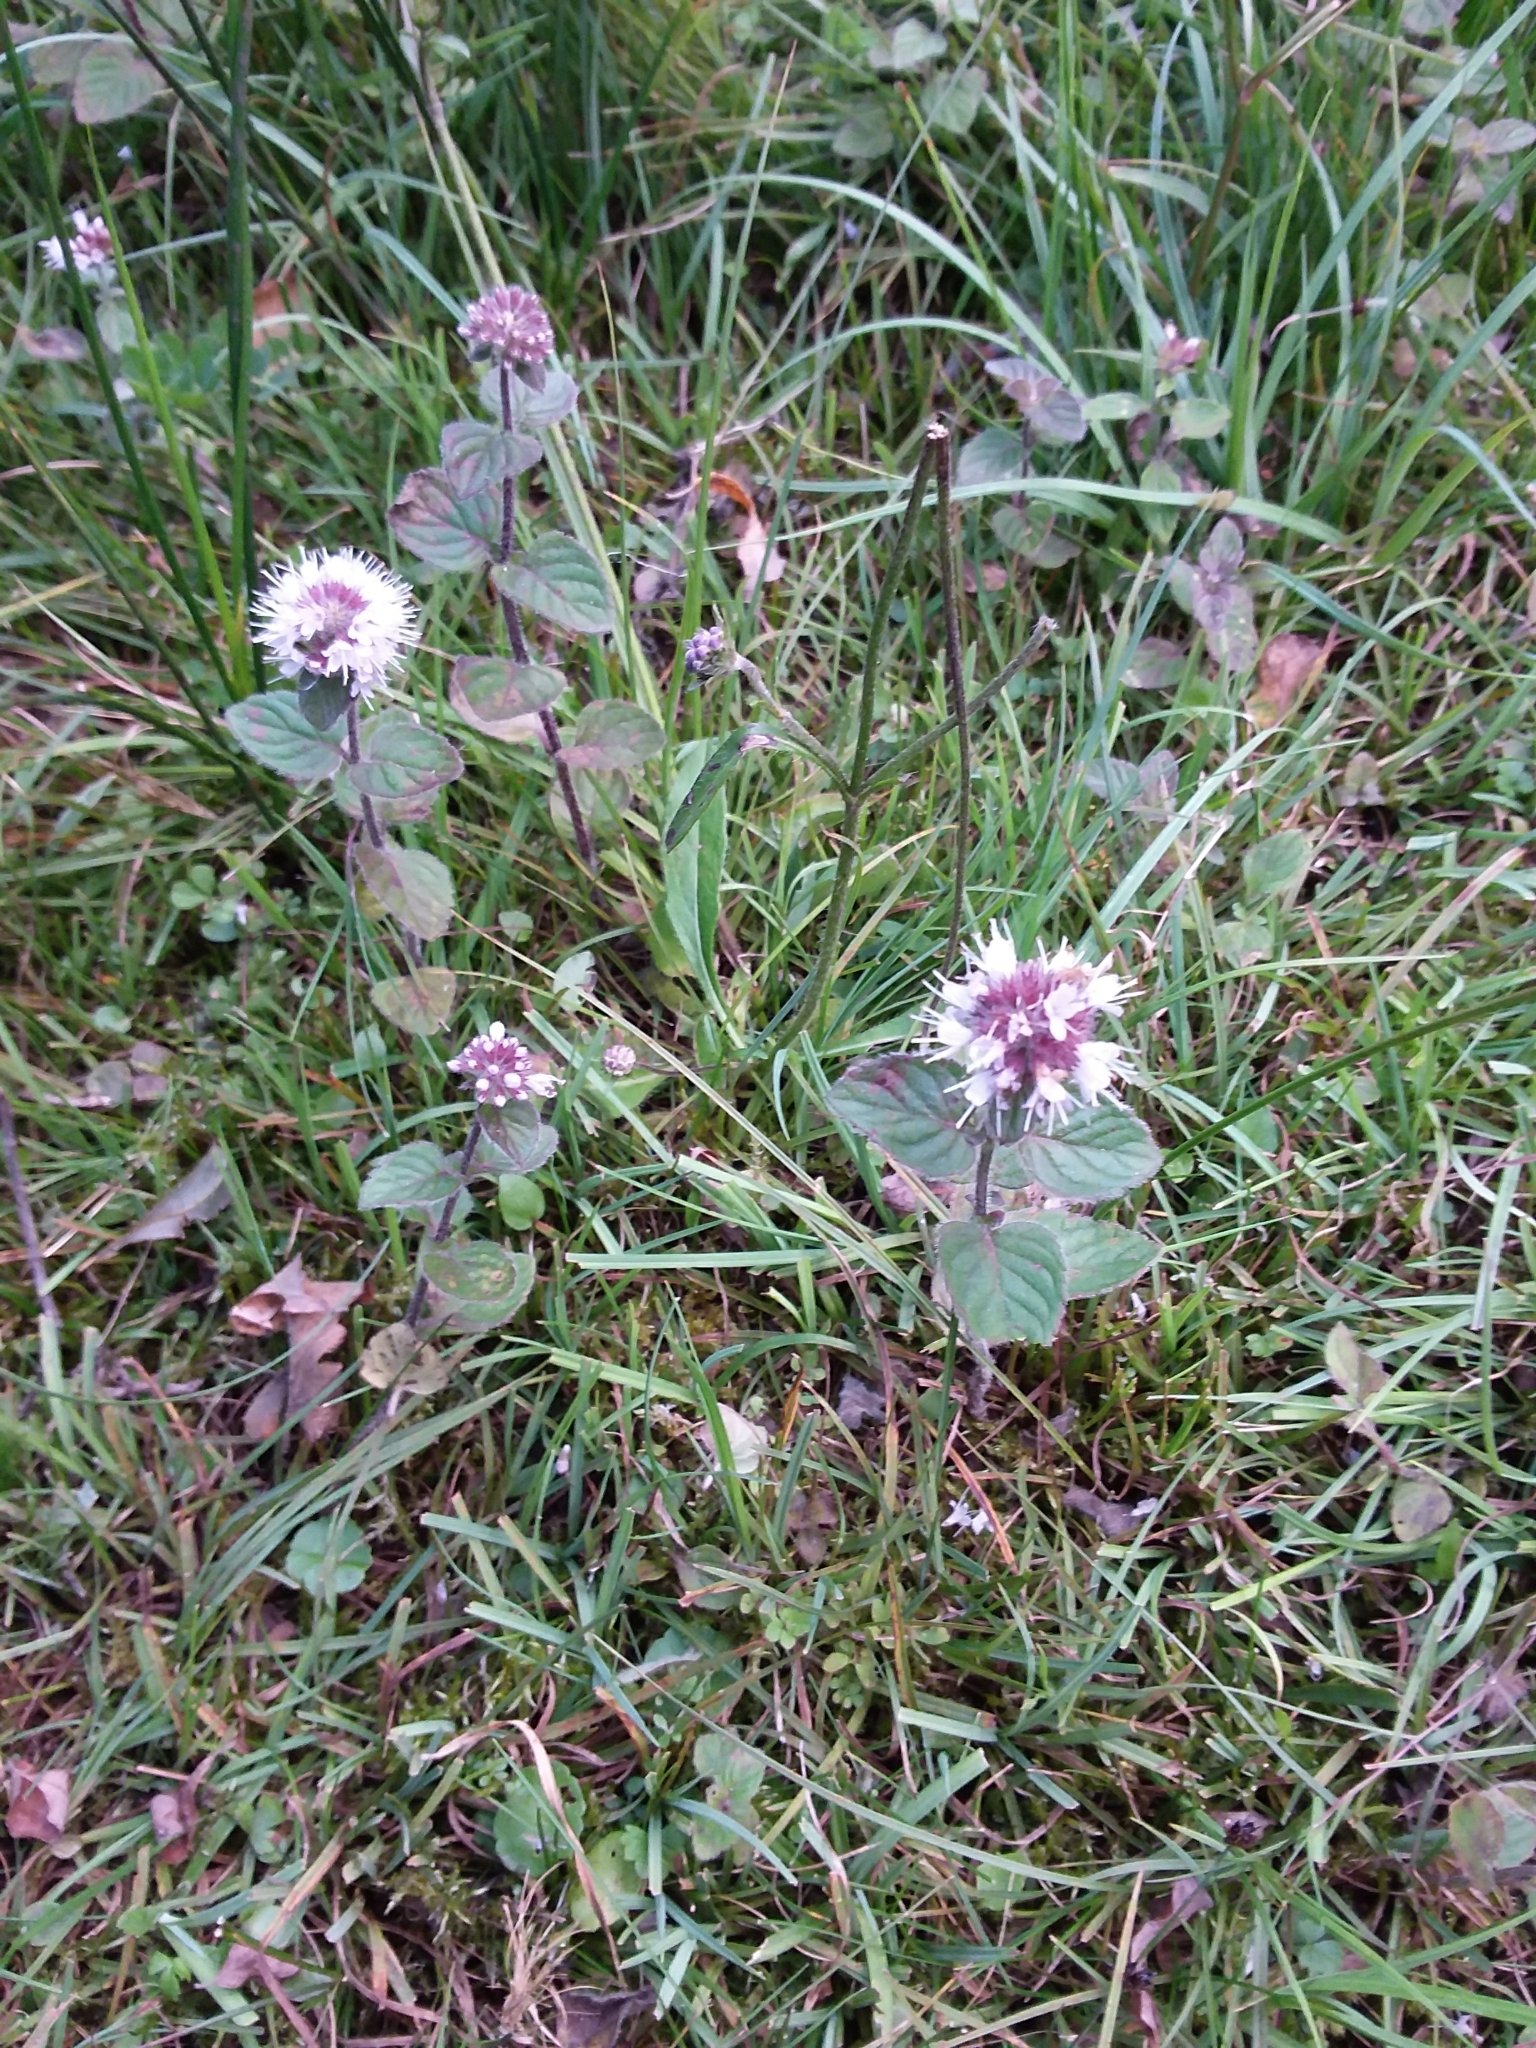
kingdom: Plantae
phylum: Tracheophyta
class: Magnoliopsida
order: Lamiales
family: Lamiaceae
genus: Mentha
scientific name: Mentha aquatica
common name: Water mint
